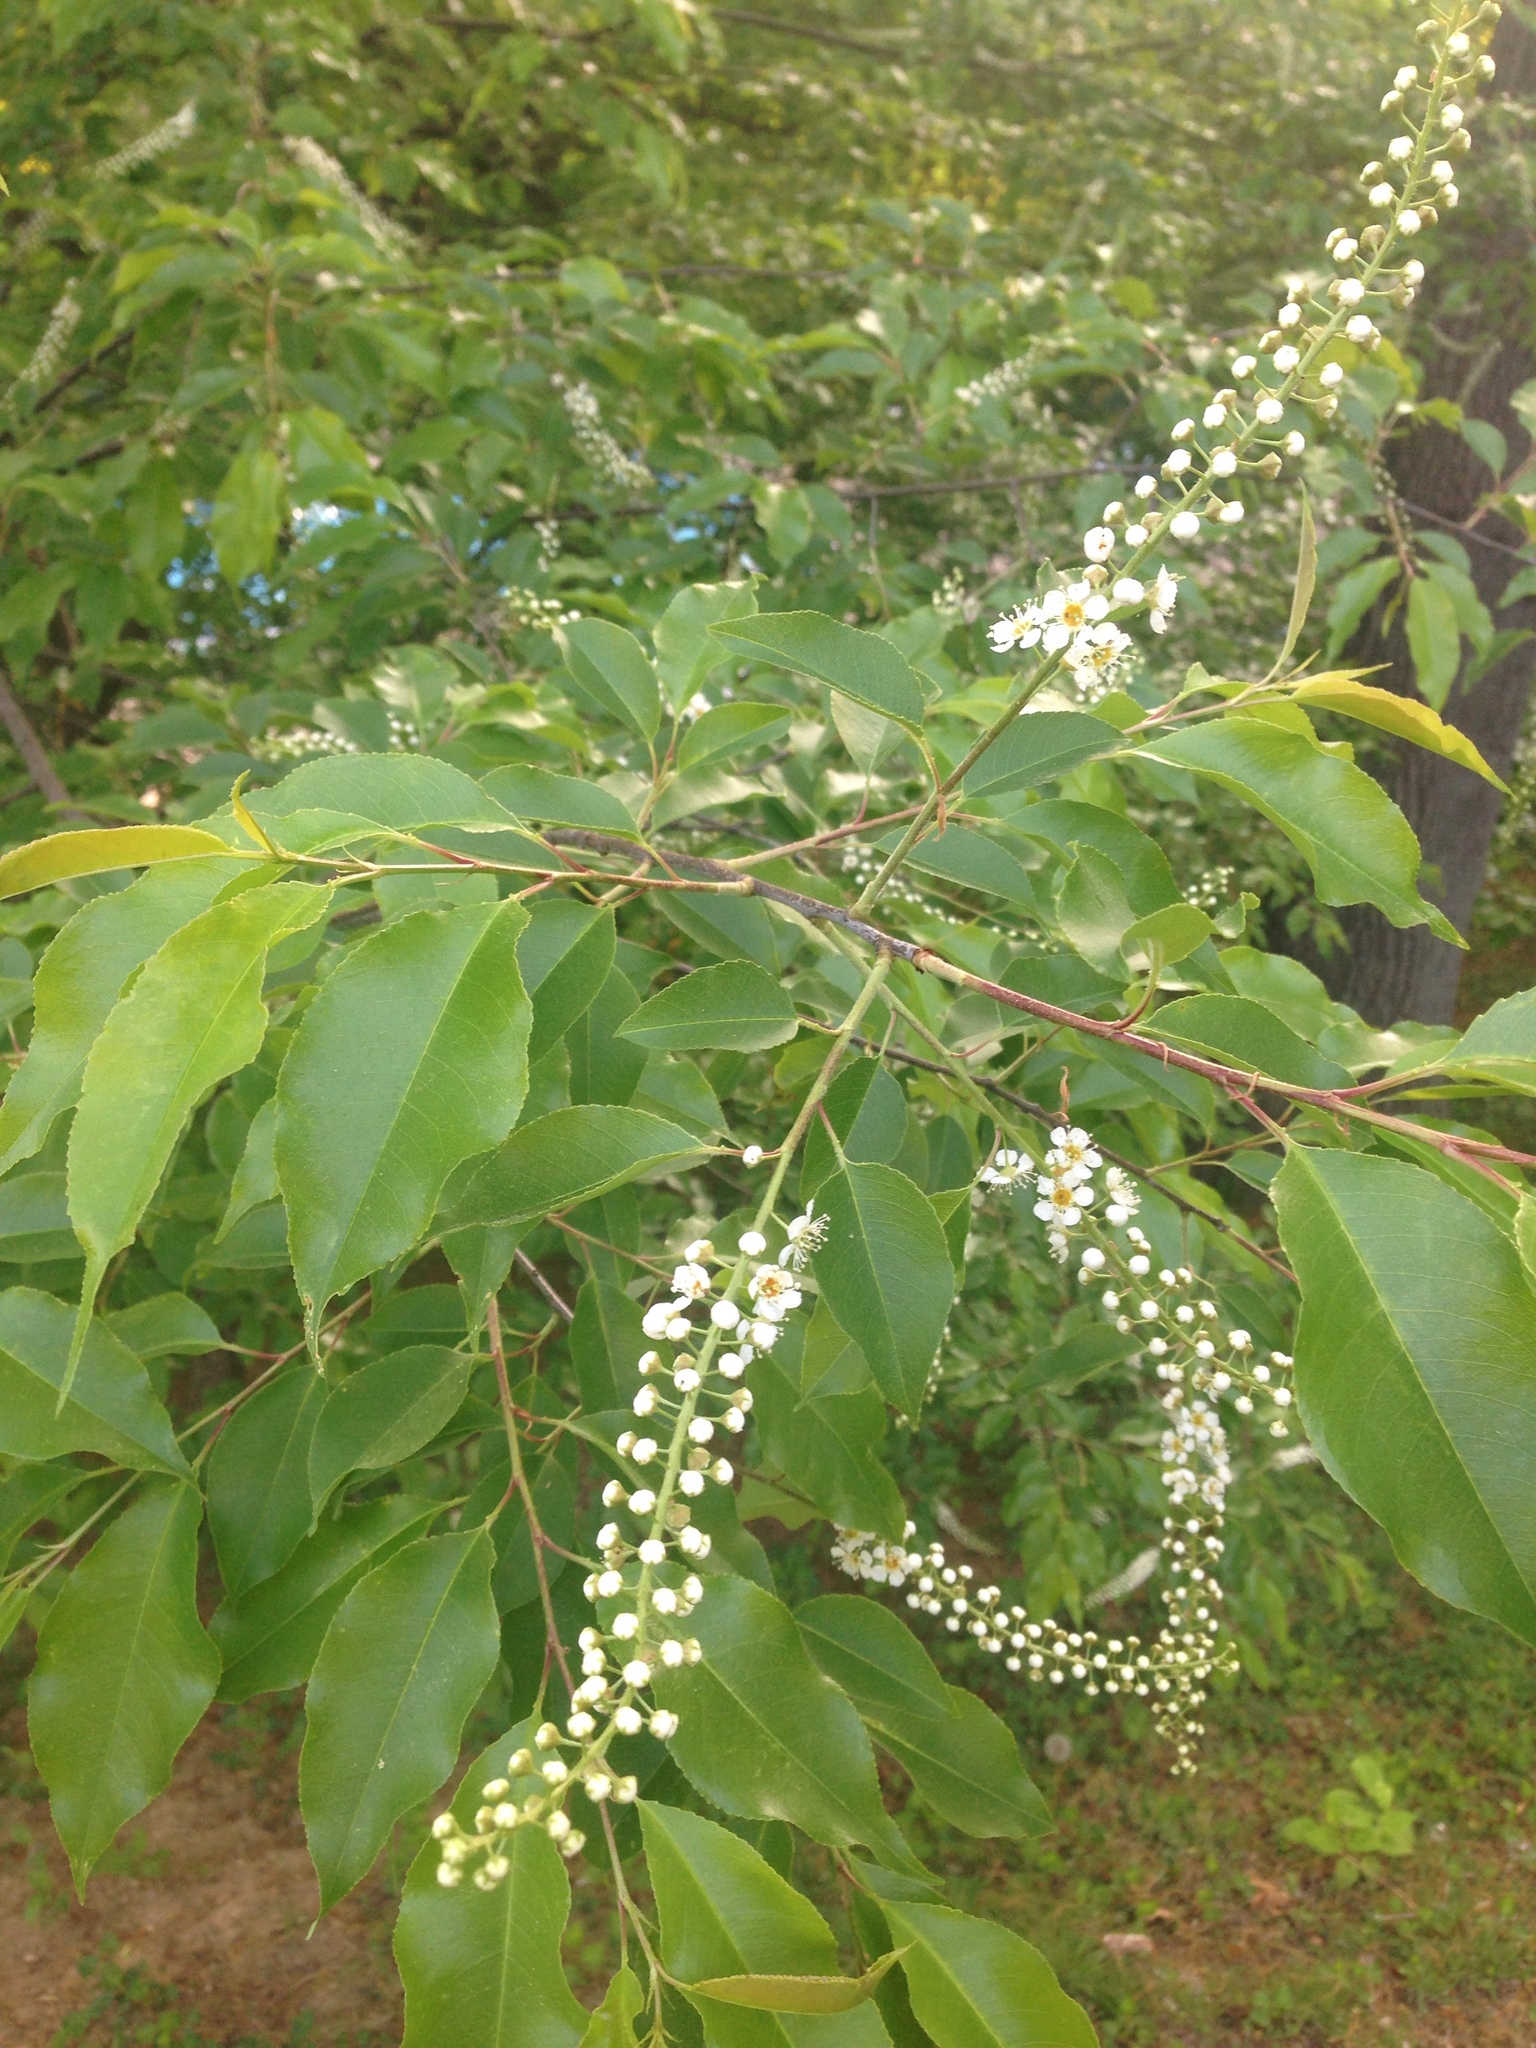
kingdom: Plantae
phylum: Tracheophyta
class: Magnoliopsida
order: Rosales
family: Rosaceae
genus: Prunus
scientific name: Prunus serotina
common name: Black cherry
